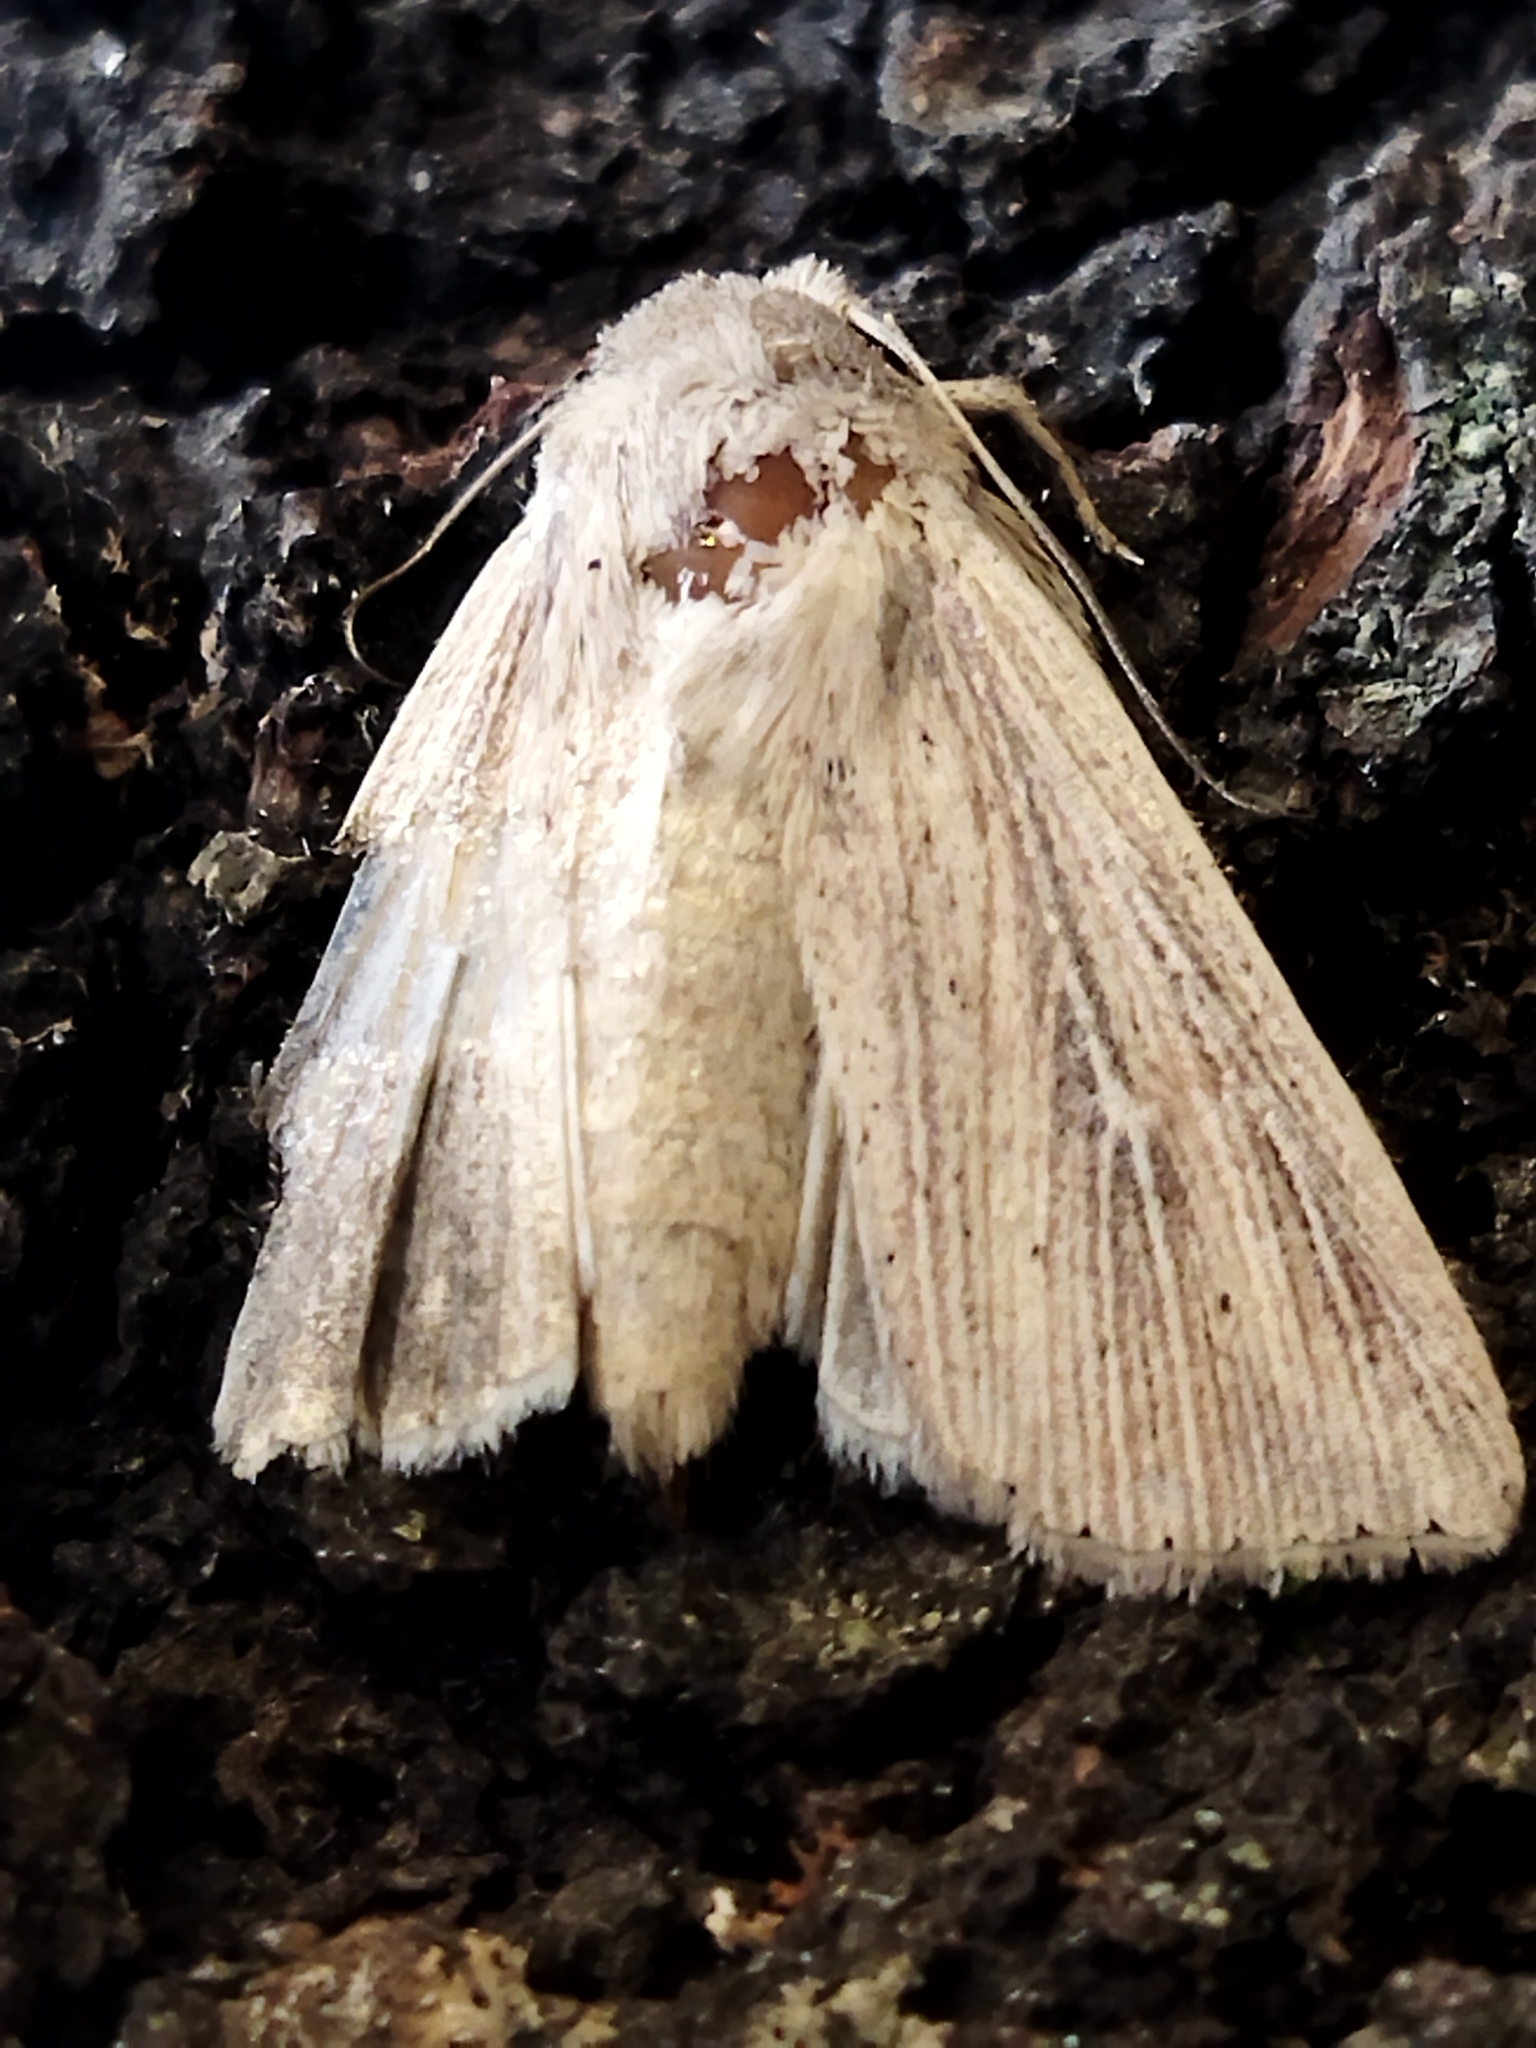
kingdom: Animalia
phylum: Arthropoda
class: Insecta
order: Lepidoptera
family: Noctuidae
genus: Mythimna
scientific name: Mythimna congrua
